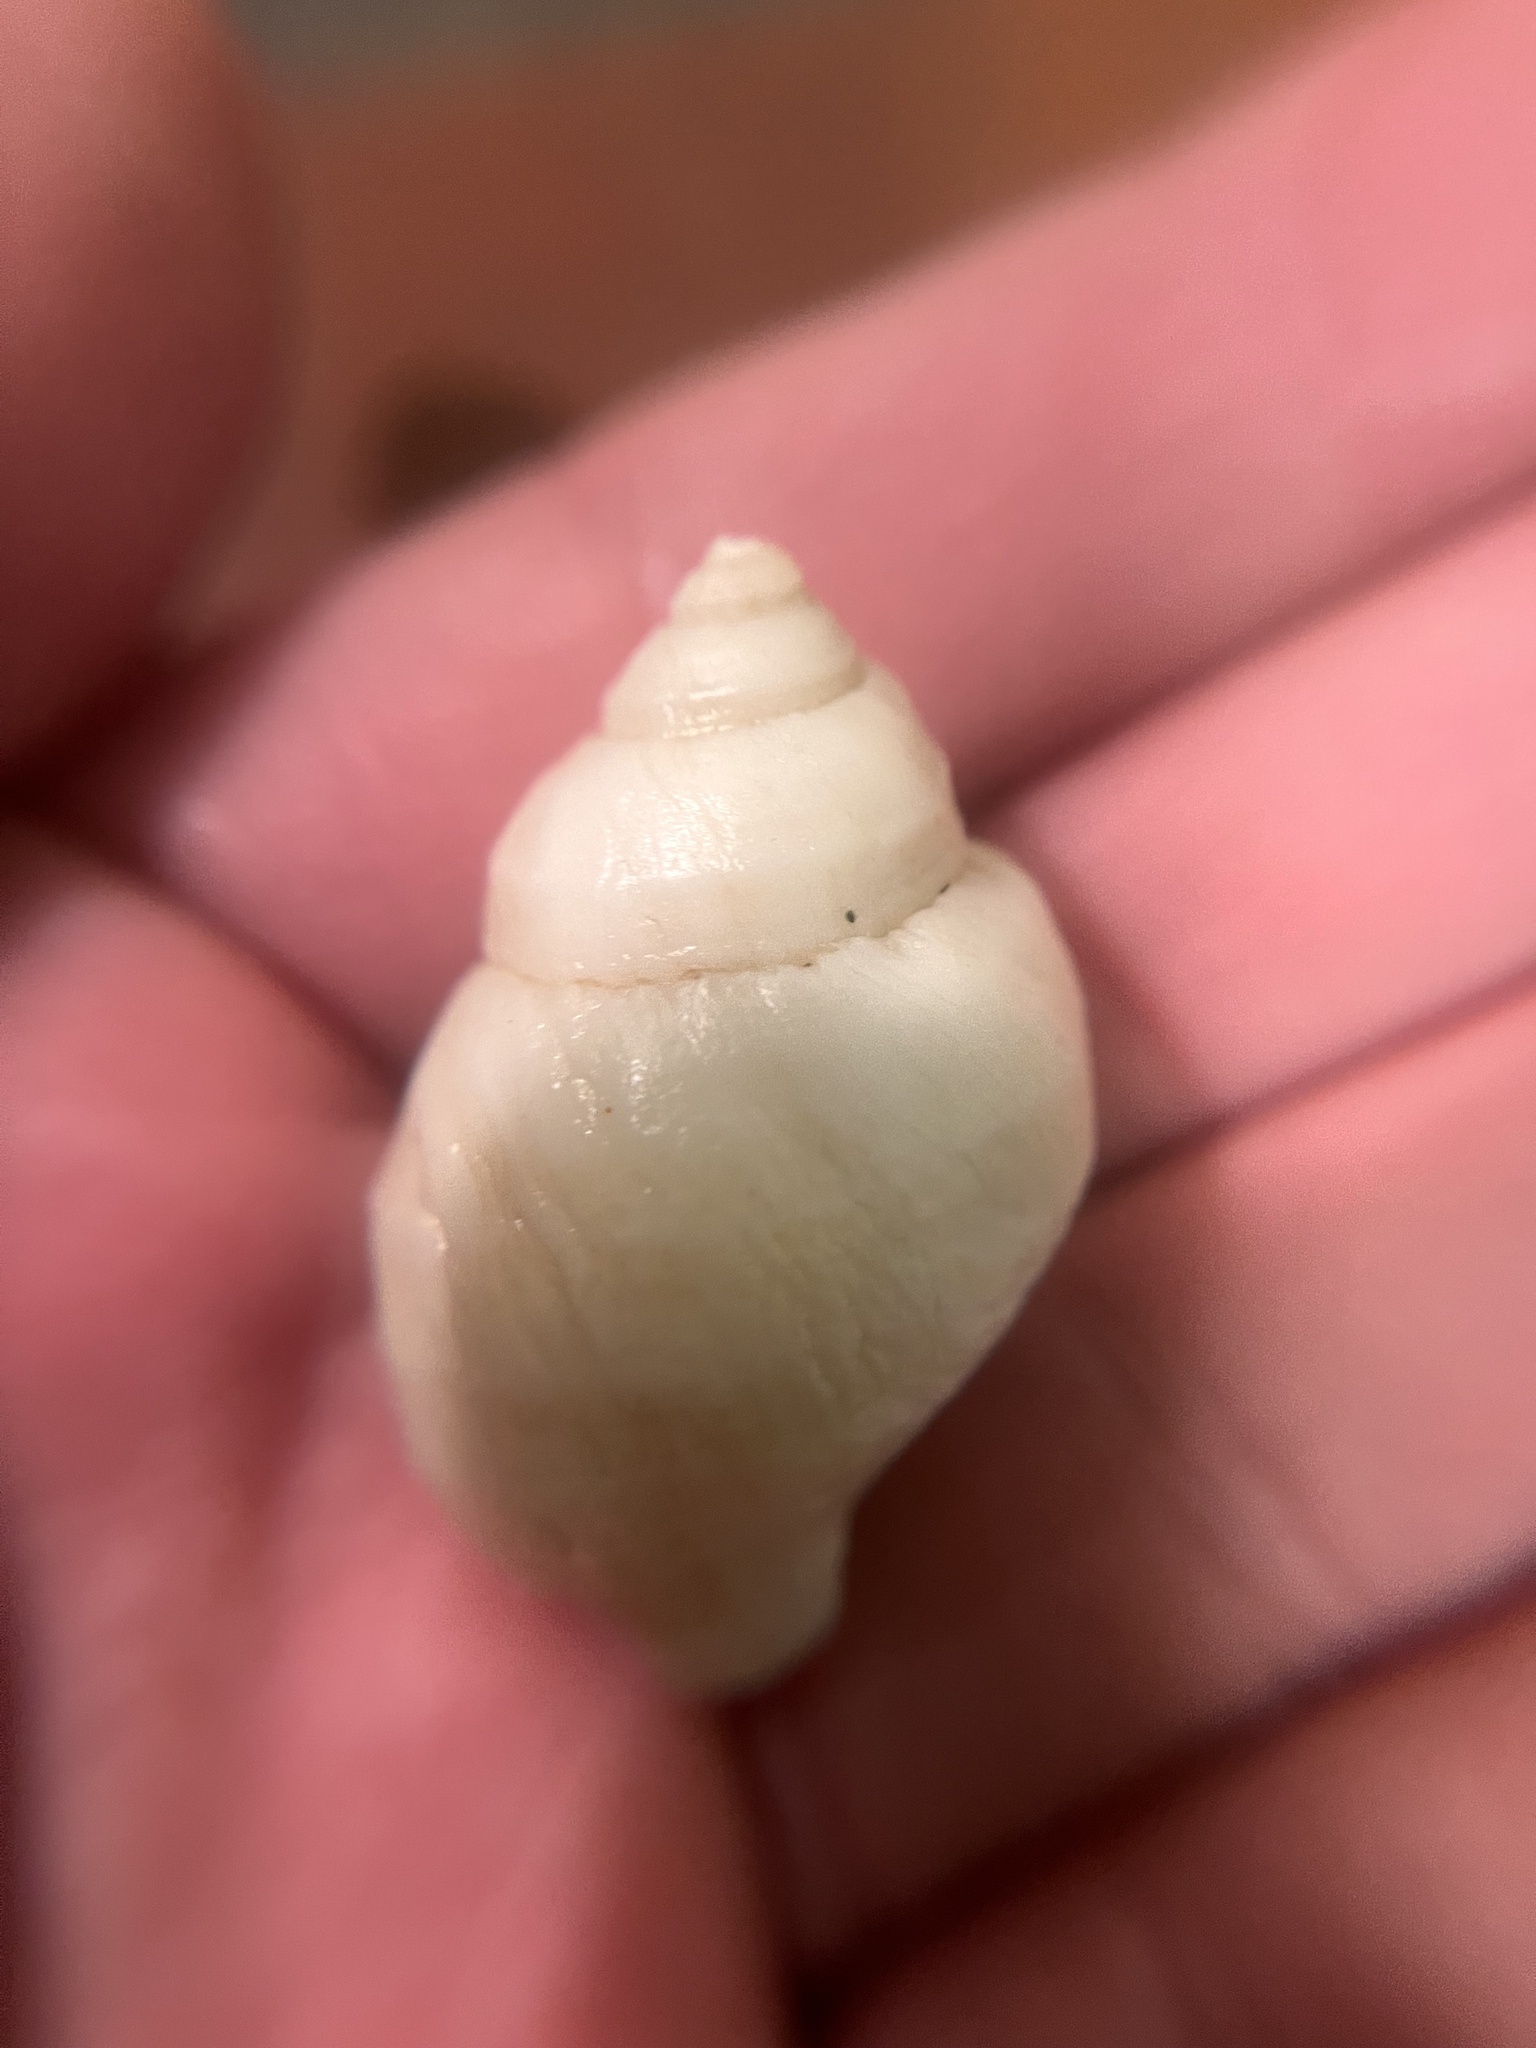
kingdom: Animalia
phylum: Mollusca
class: Gastropoda
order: Neogastropoda
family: Muricidae
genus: Nucella
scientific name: Nucella lamellosa
